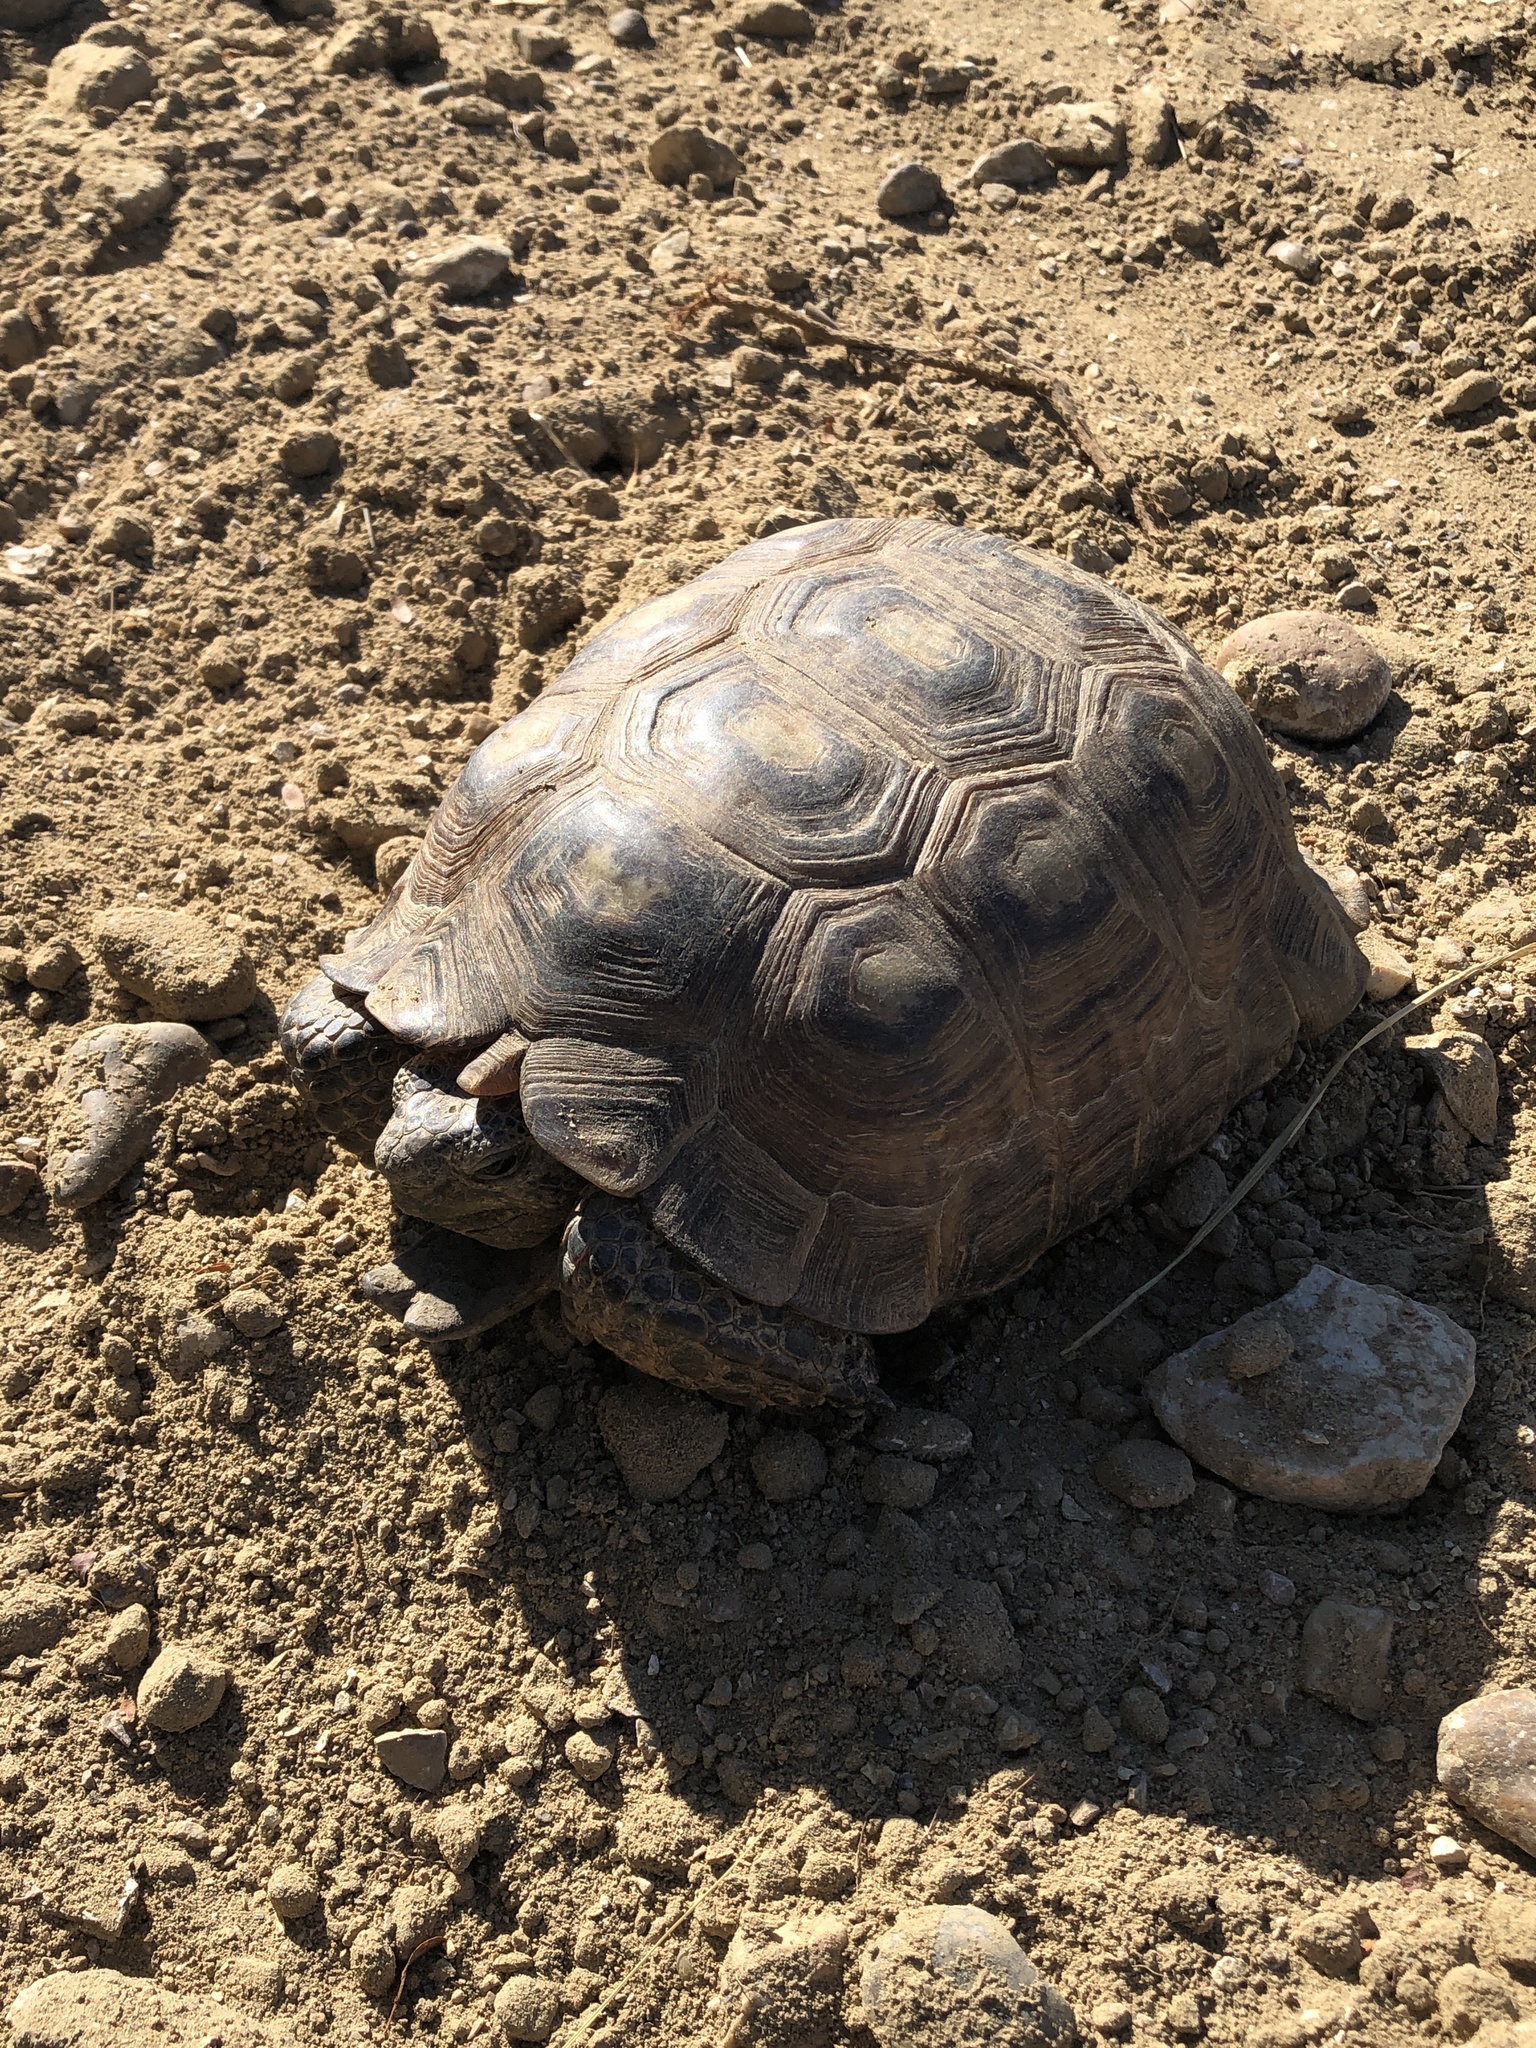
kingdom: Animalia
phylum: Chordata
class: Testudines
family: Testudinidae
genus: Gopherus
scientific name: Gopherus berlandieri
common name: Texas (gopher )tortoise
